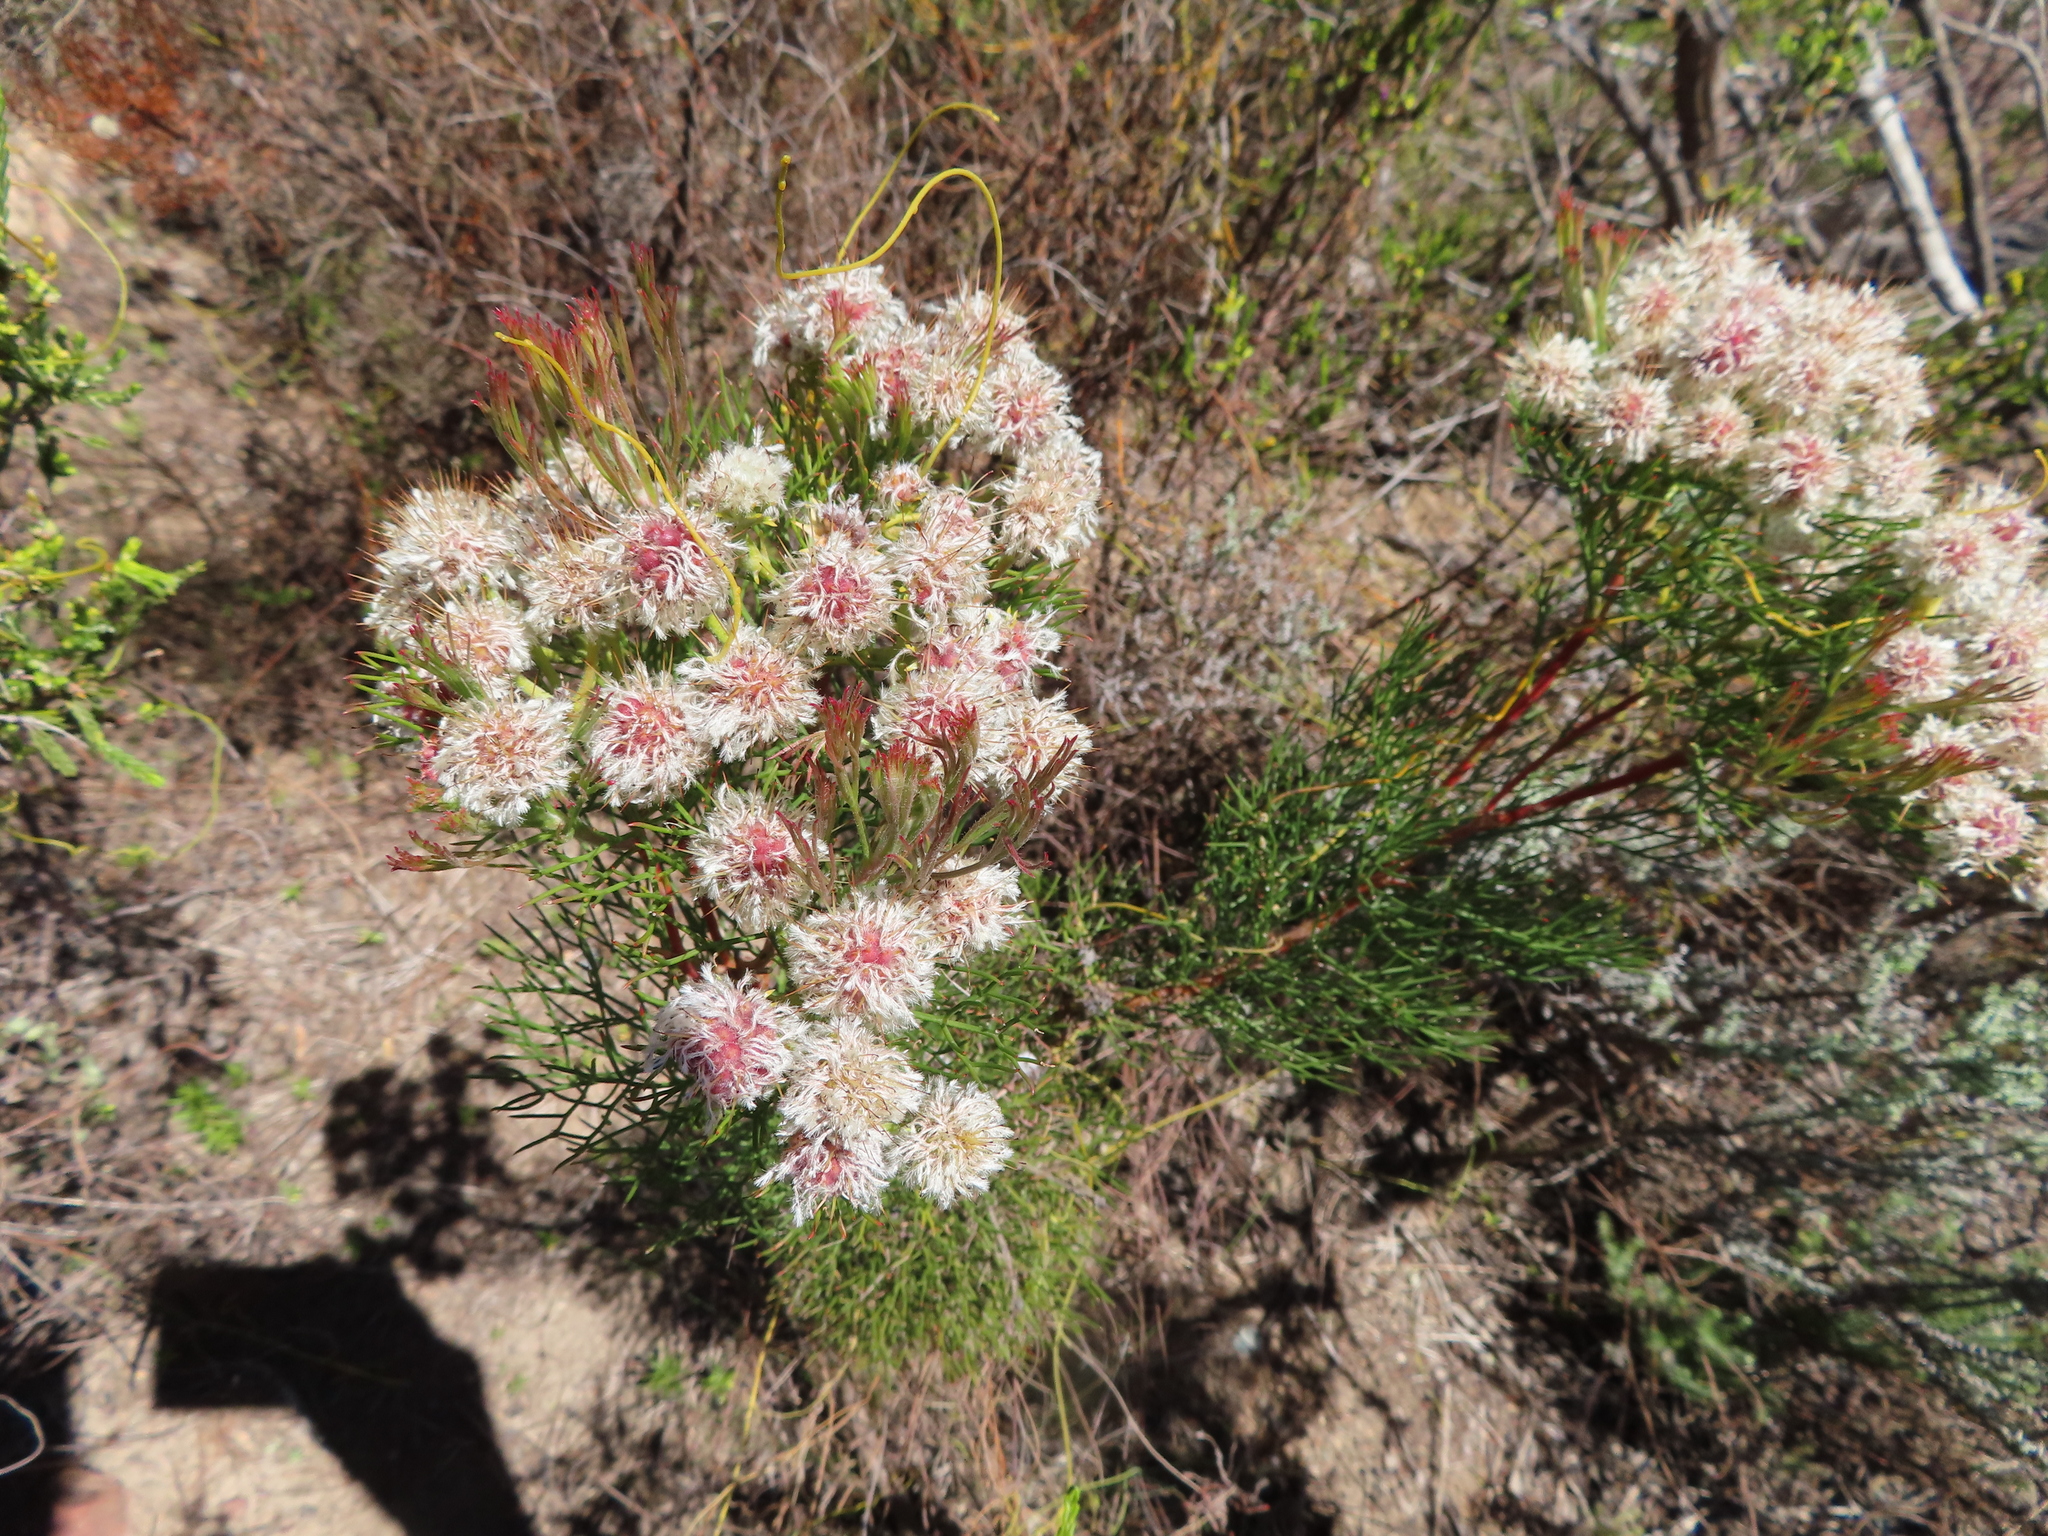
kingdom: Plantae
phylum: Tracheophyta
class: Magnoliopsida
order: Proteales
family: Proteaceae
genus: Serruria
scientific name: Serruria kraussii
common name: Snowball spiderhead
